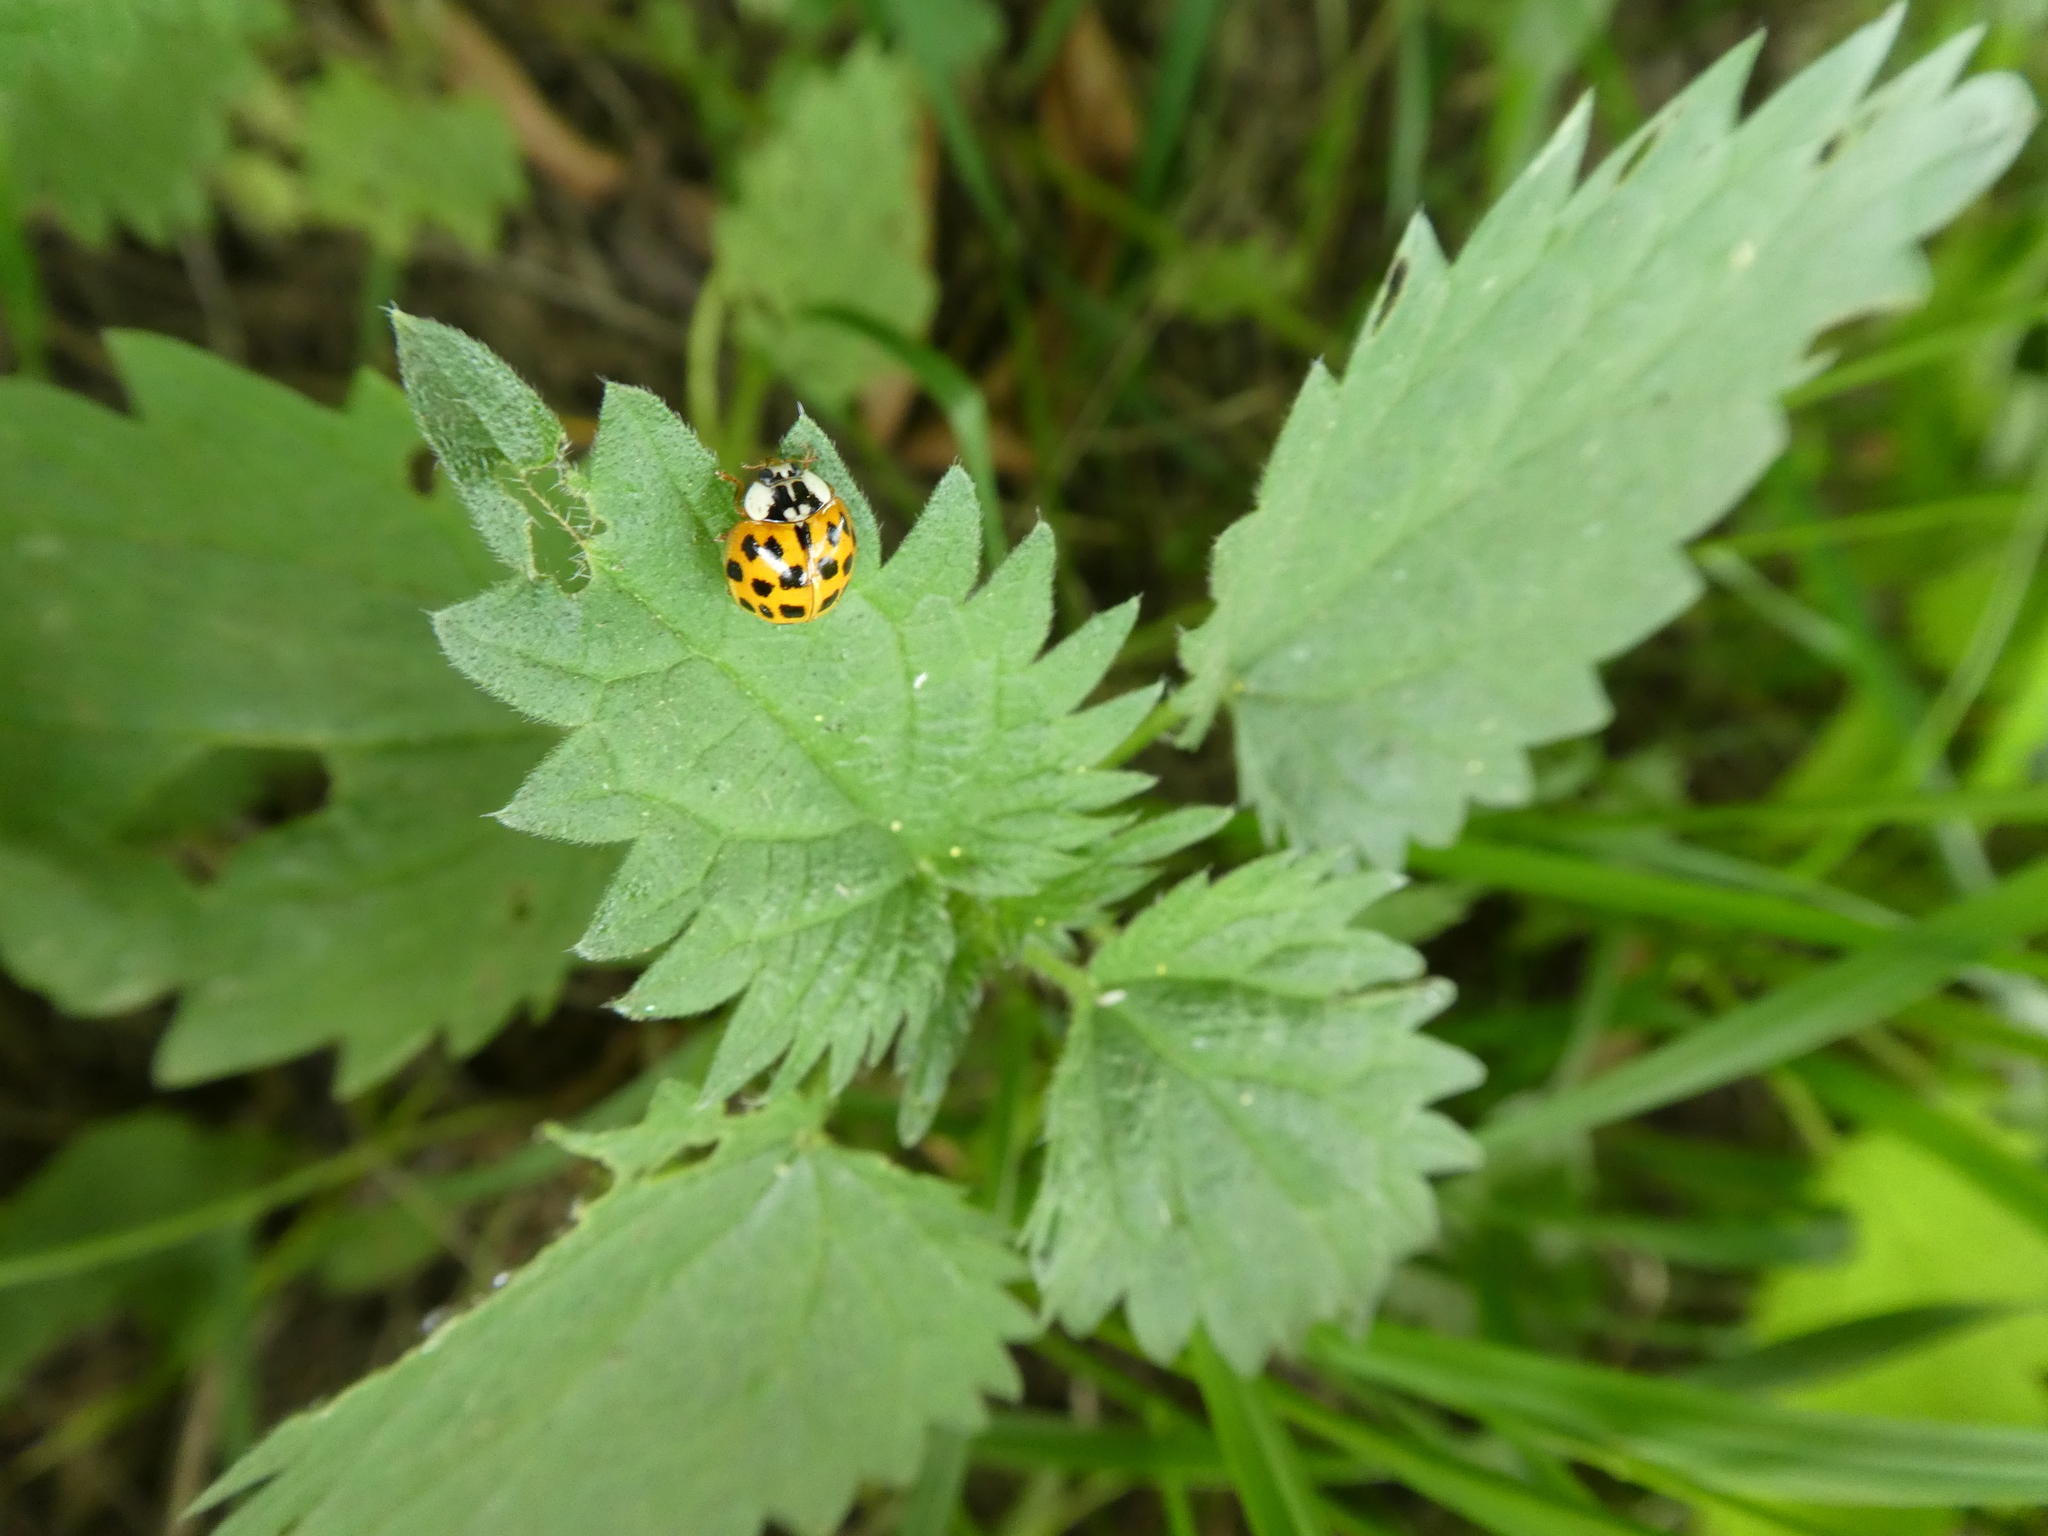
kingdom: Animalia
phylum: Arthropoda
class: Insecta
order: Coleoptera
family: Coccinellidae
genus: Harmonia
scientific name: Harmonia axyridis
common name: Harlequin ladybird
